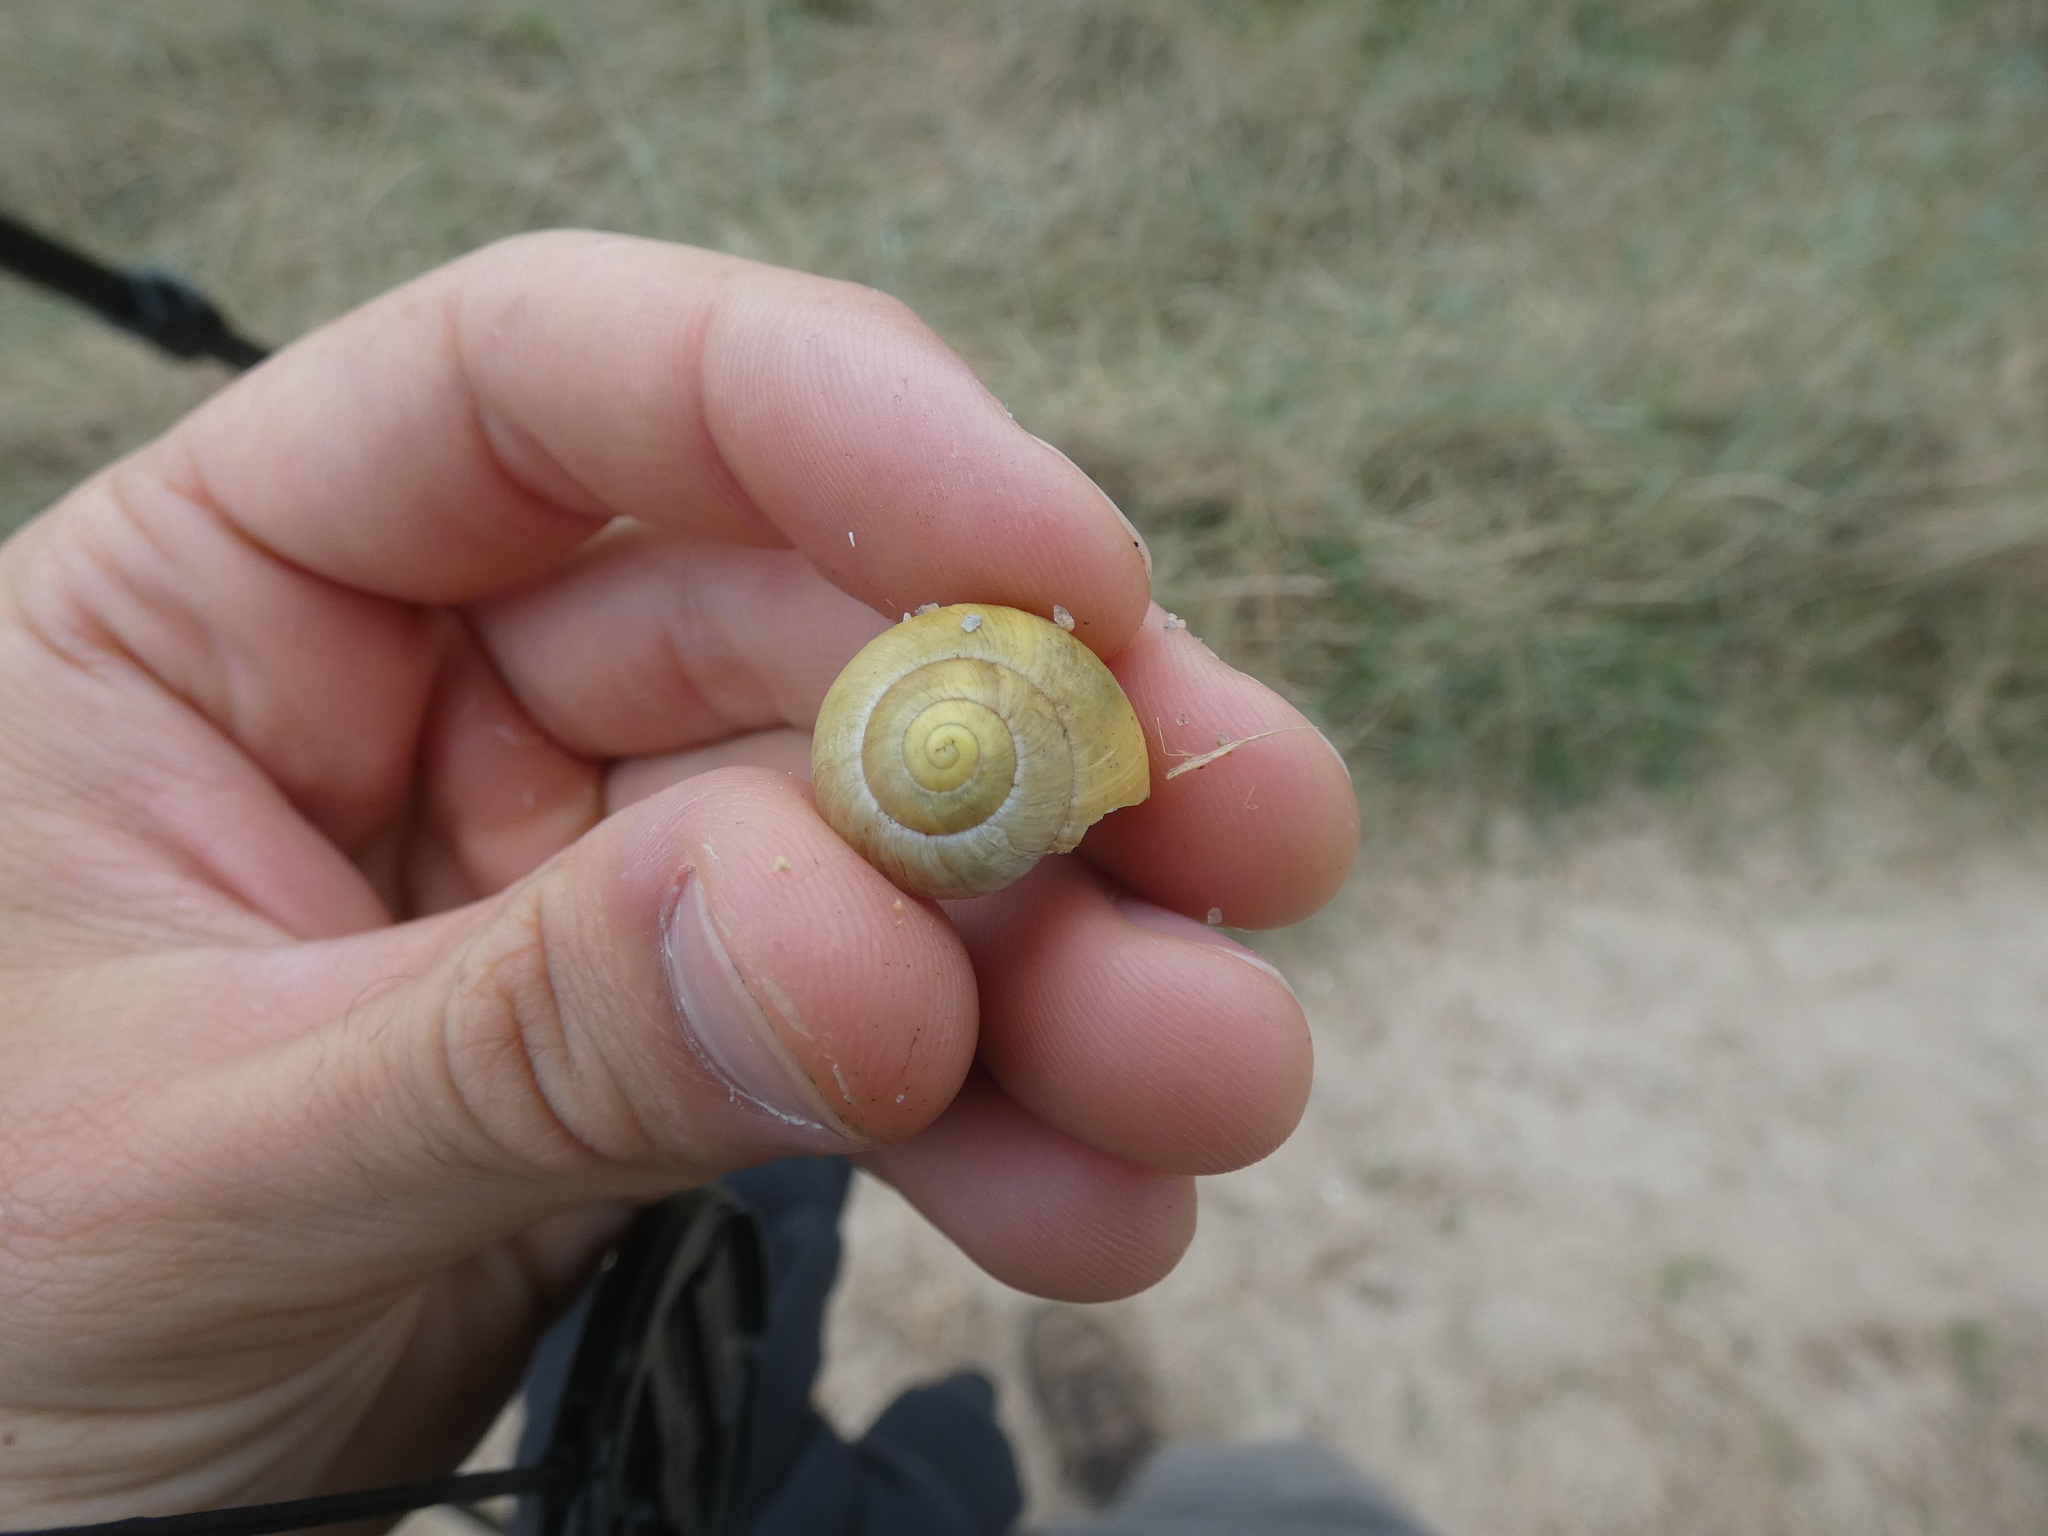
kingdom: Animalia
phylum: Mollusca
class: Gastropoda
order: Stylommatophora
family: Helicidae
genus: Cepaea
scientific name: Cepaea nemoralis
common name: Grovesnail
